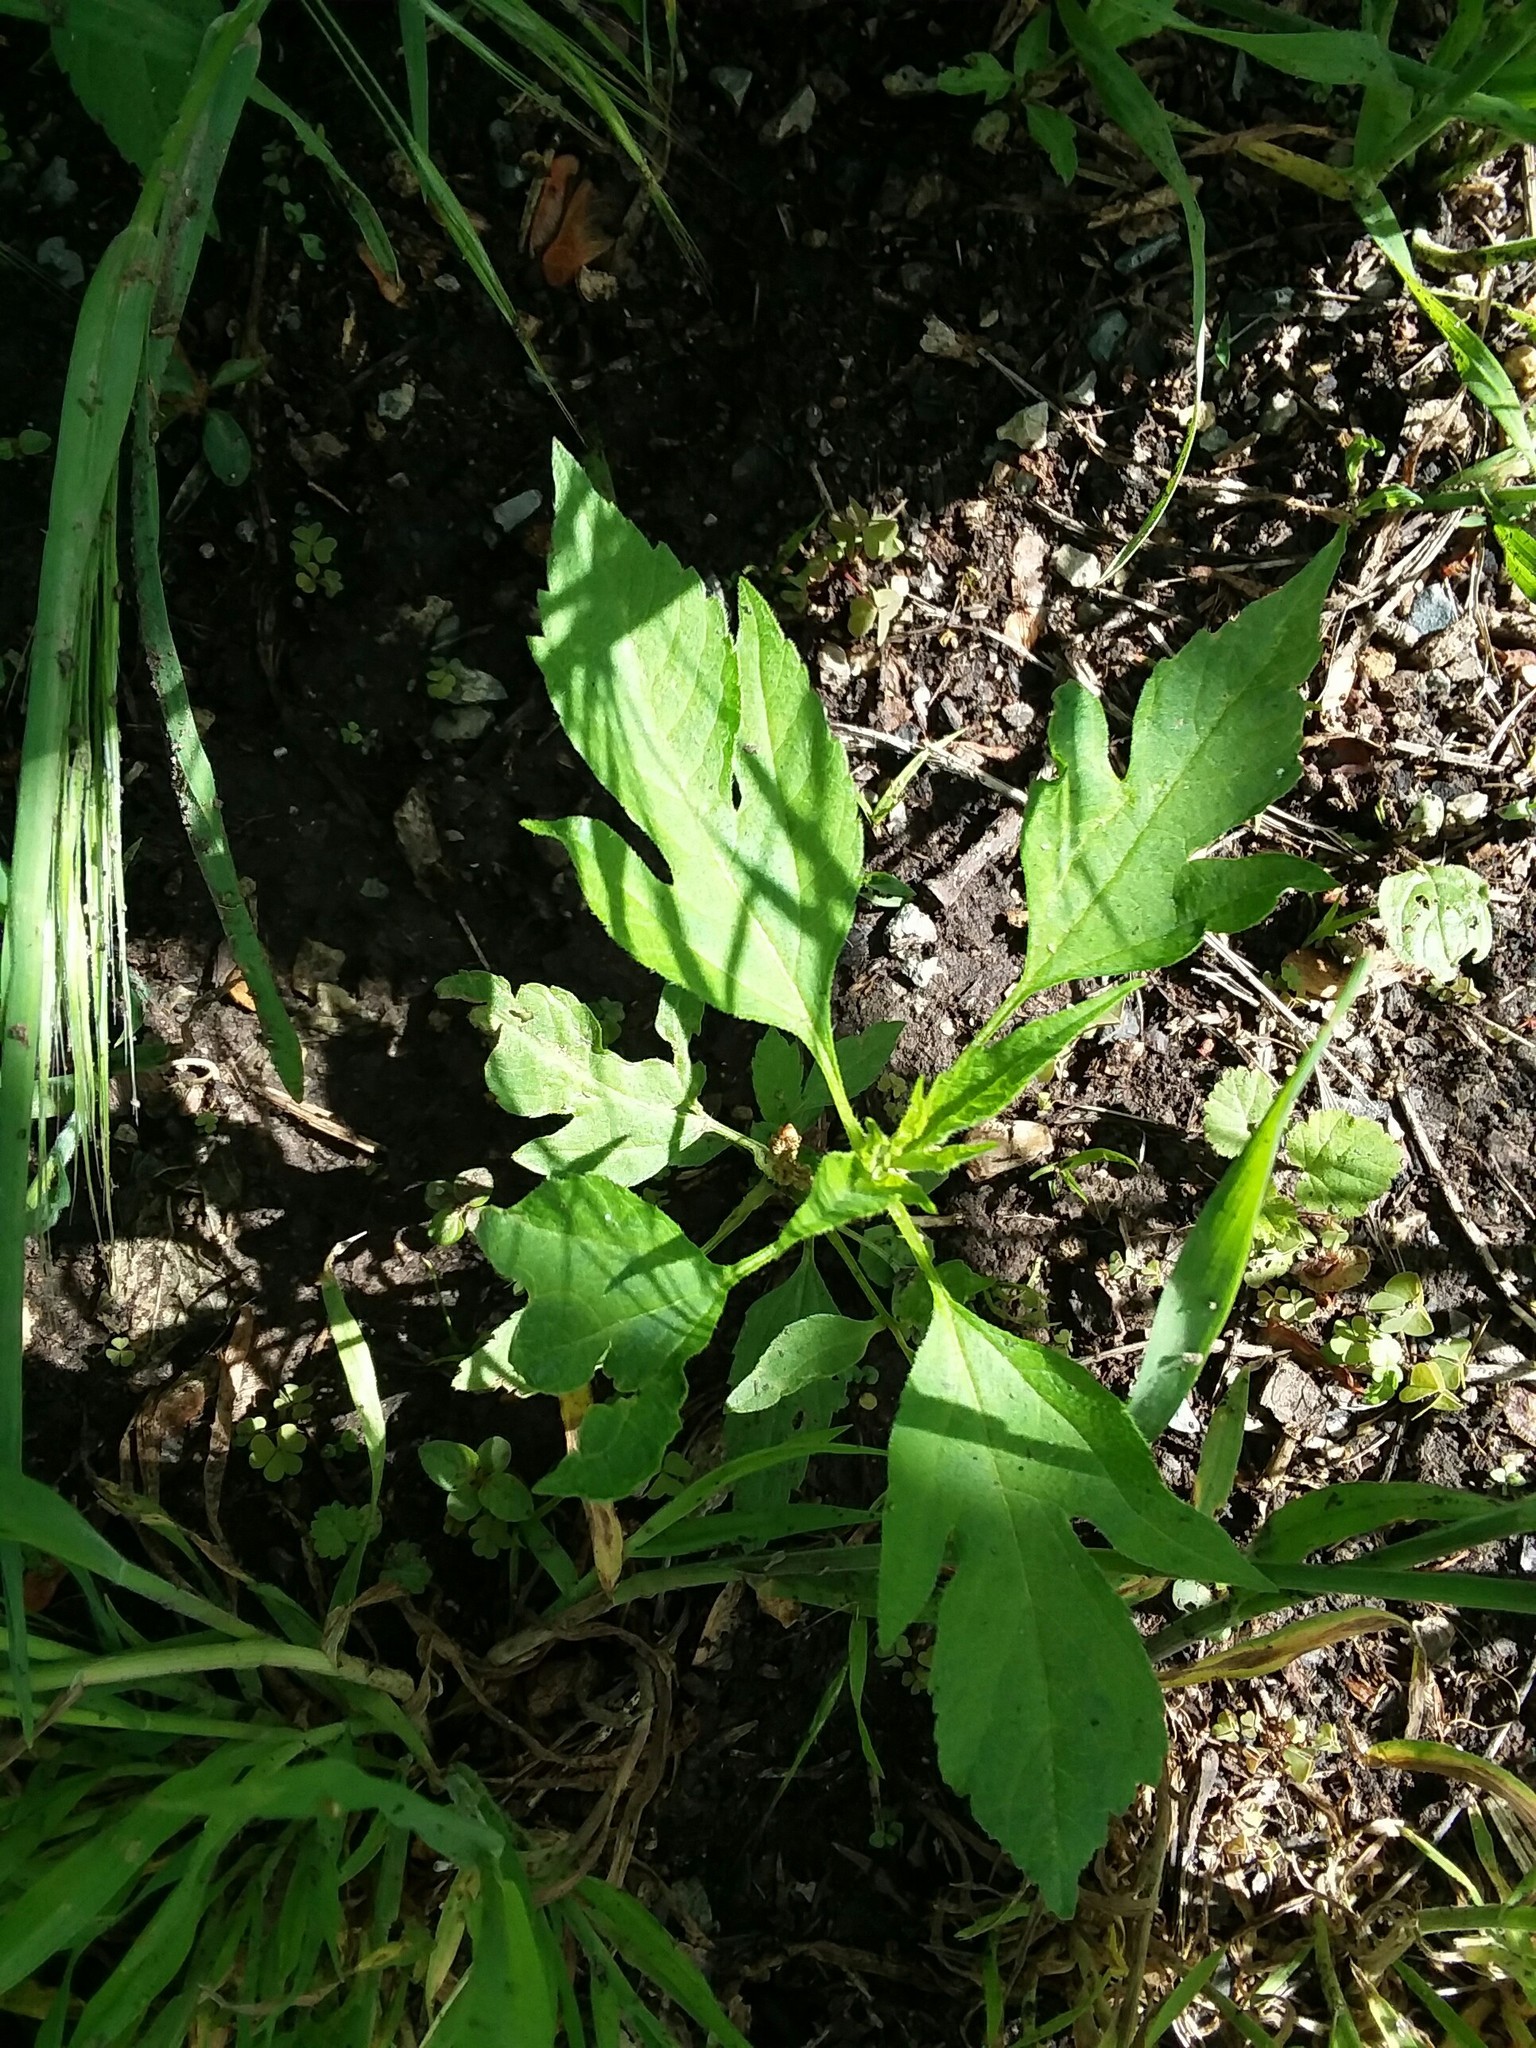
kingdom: Plantae
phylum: Tracheophyta
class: Magnoliopsida
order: Asterales
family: Asteraceae
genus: Ambrosia
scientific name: Ambrosia trifida
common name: Giant ragweed
